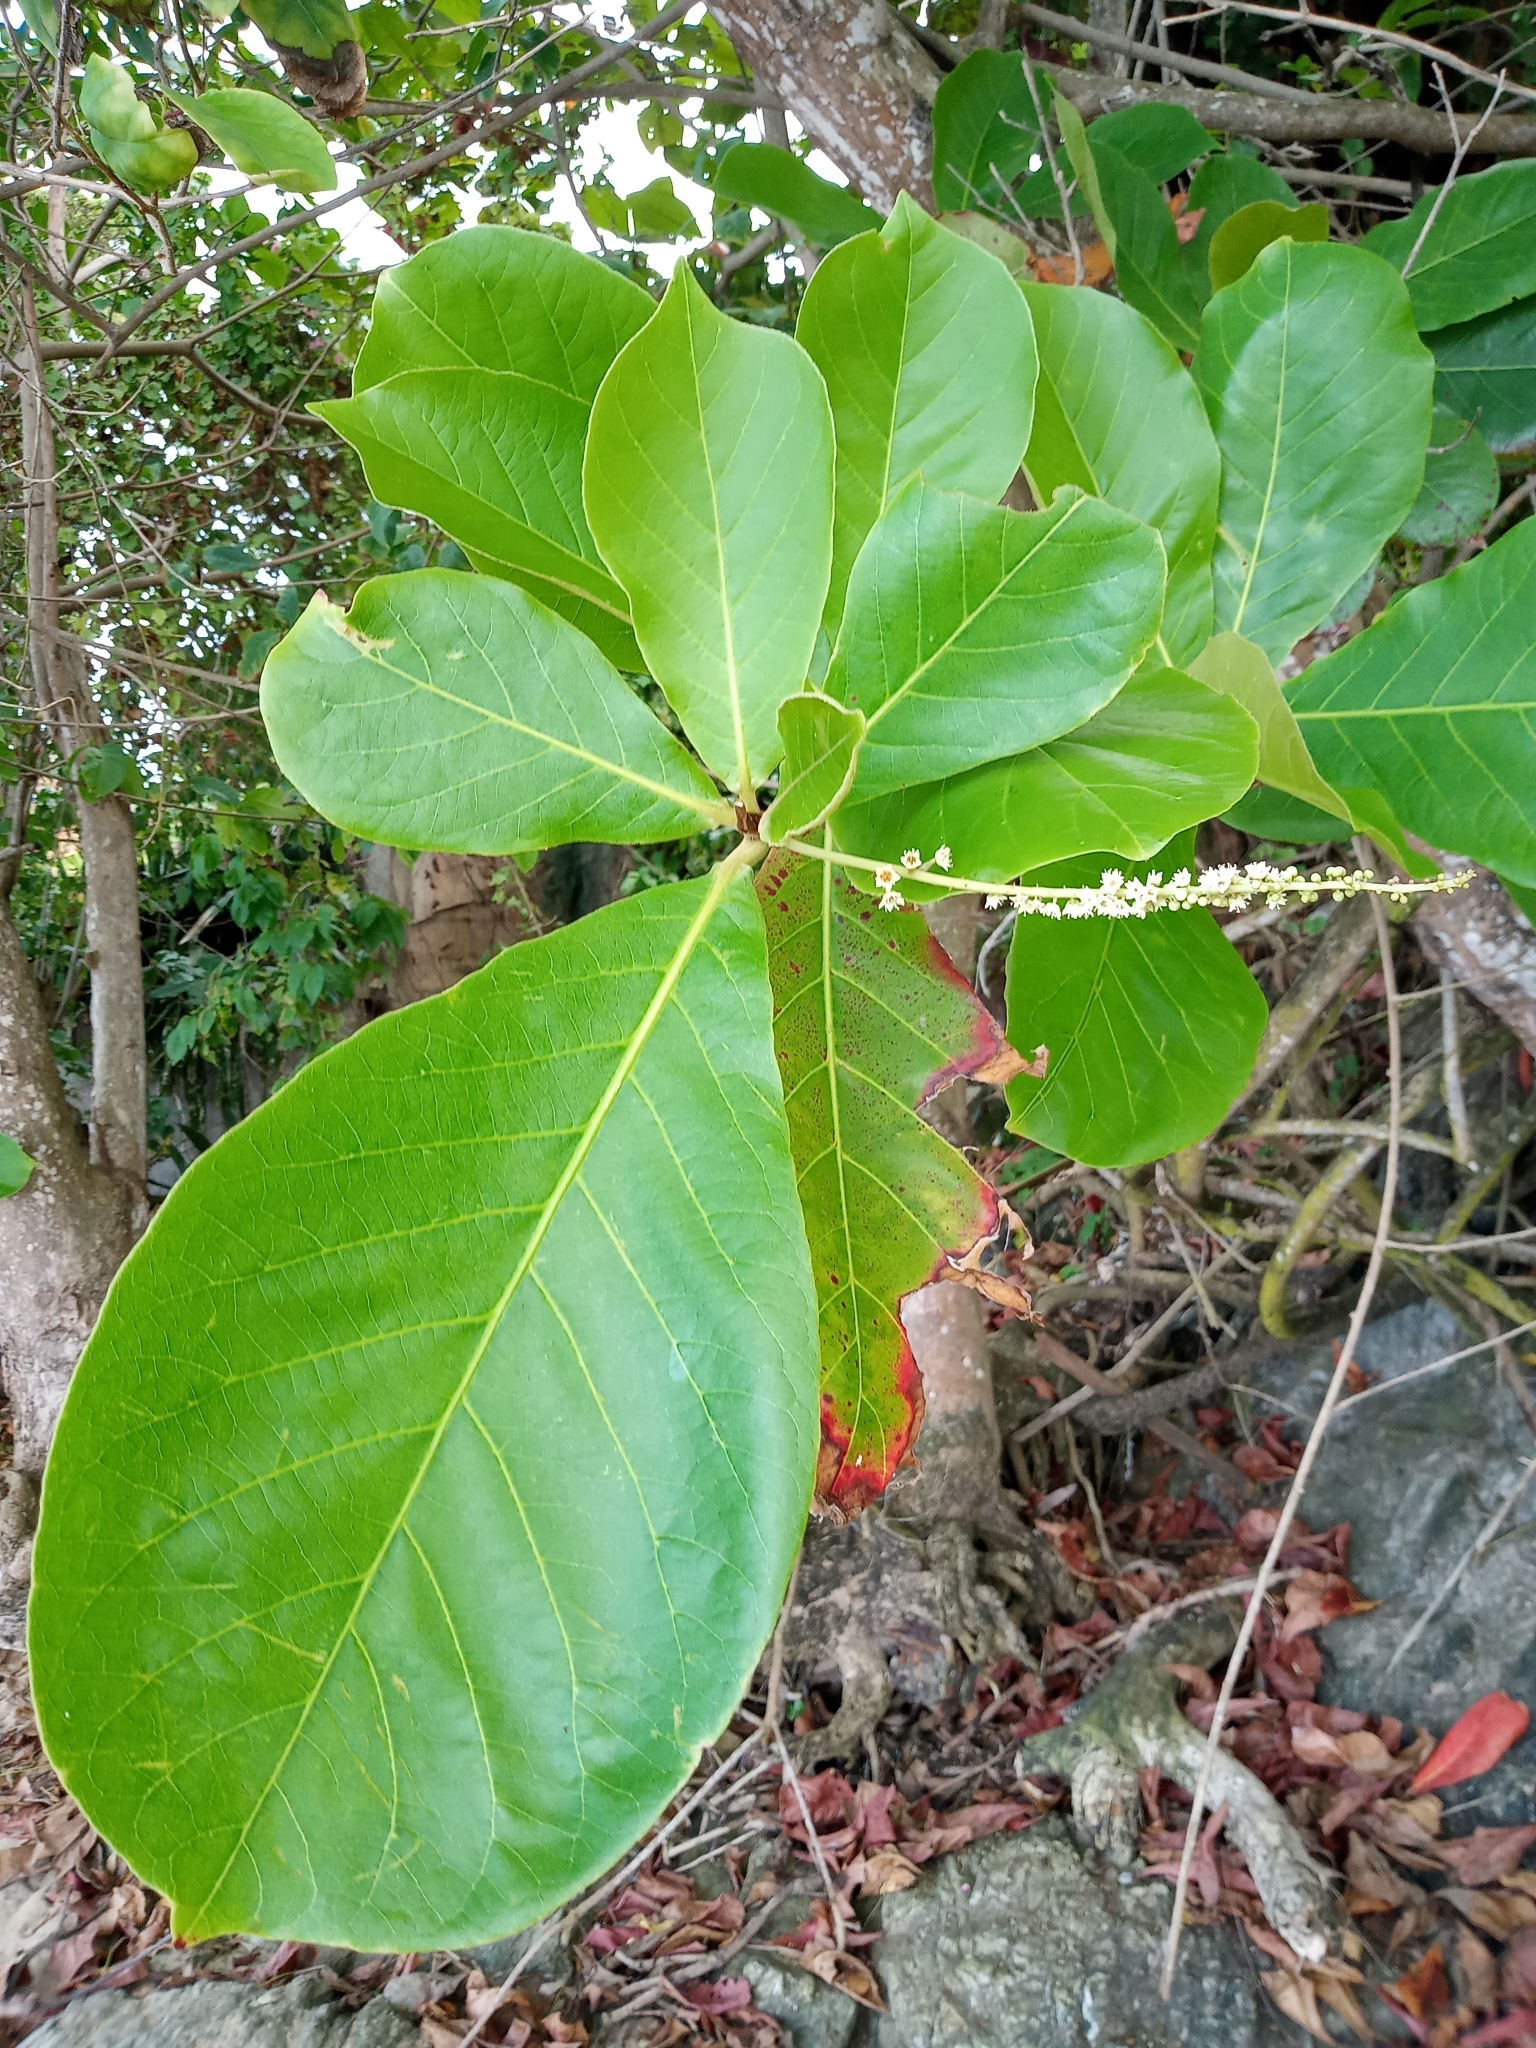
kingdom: Plantae
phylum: Tracheophyta
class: Magnoliopsida
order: Myrtales
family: Combretaceae
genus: Terminalia
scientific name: Terminalia catappa
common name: Tropical almond
